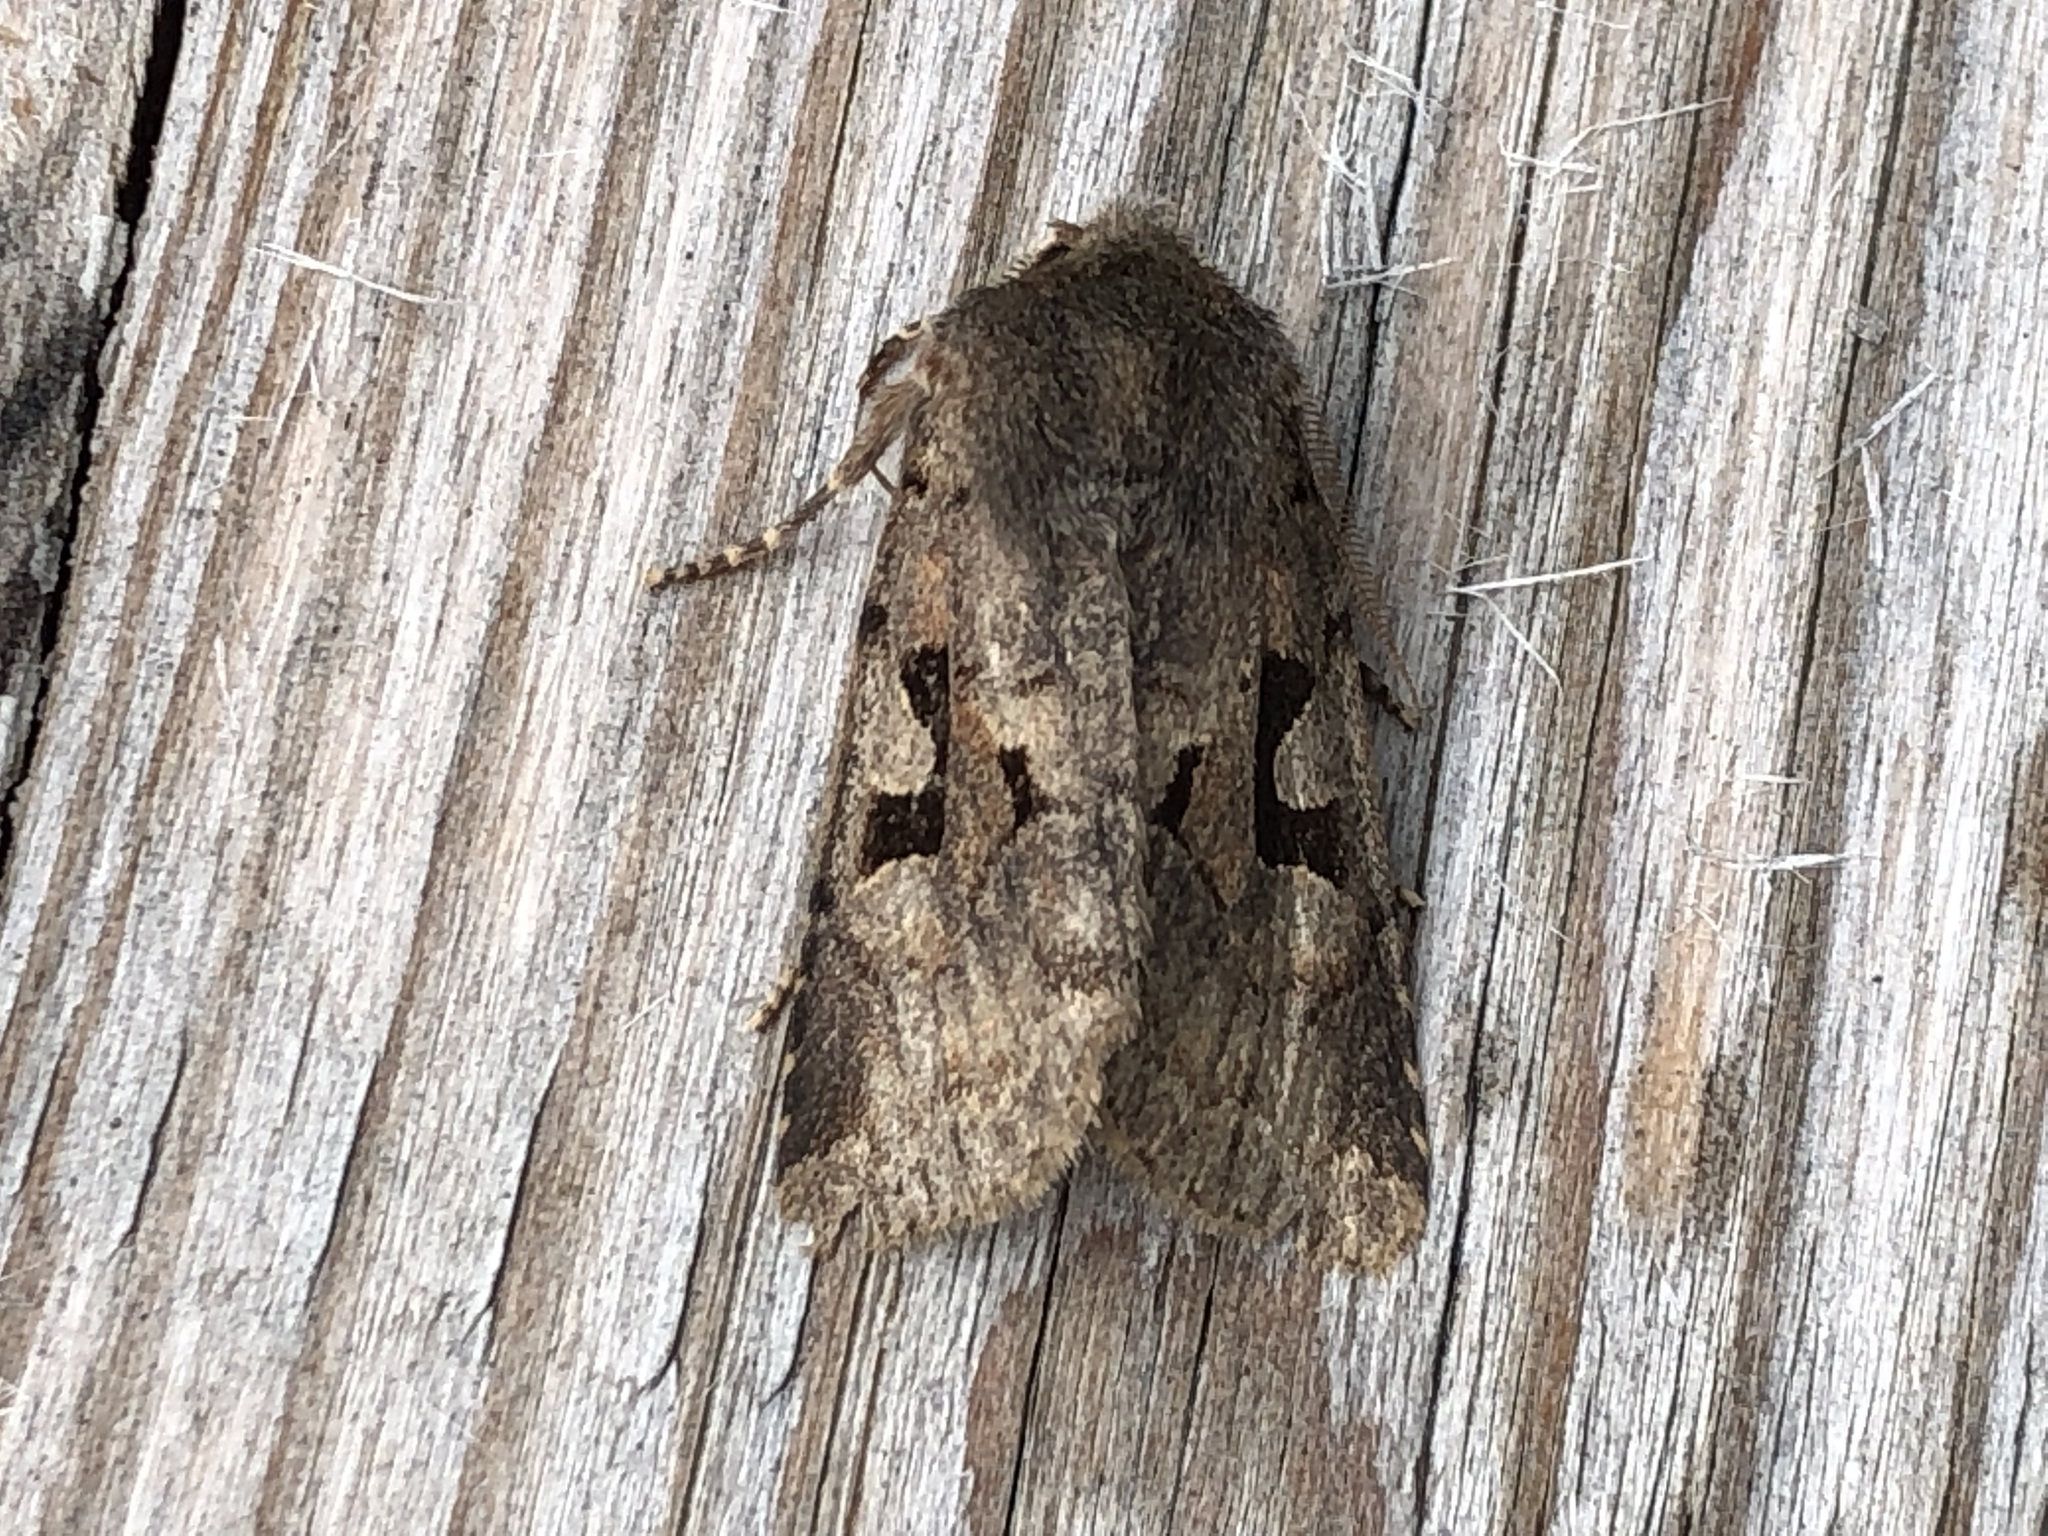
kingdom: Animalia
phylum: Arthropoda
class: Insecta
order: Lepidoptera
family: Noctuidae
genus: Orthosia
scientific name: Orthosia gothica
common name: Hebrew character
